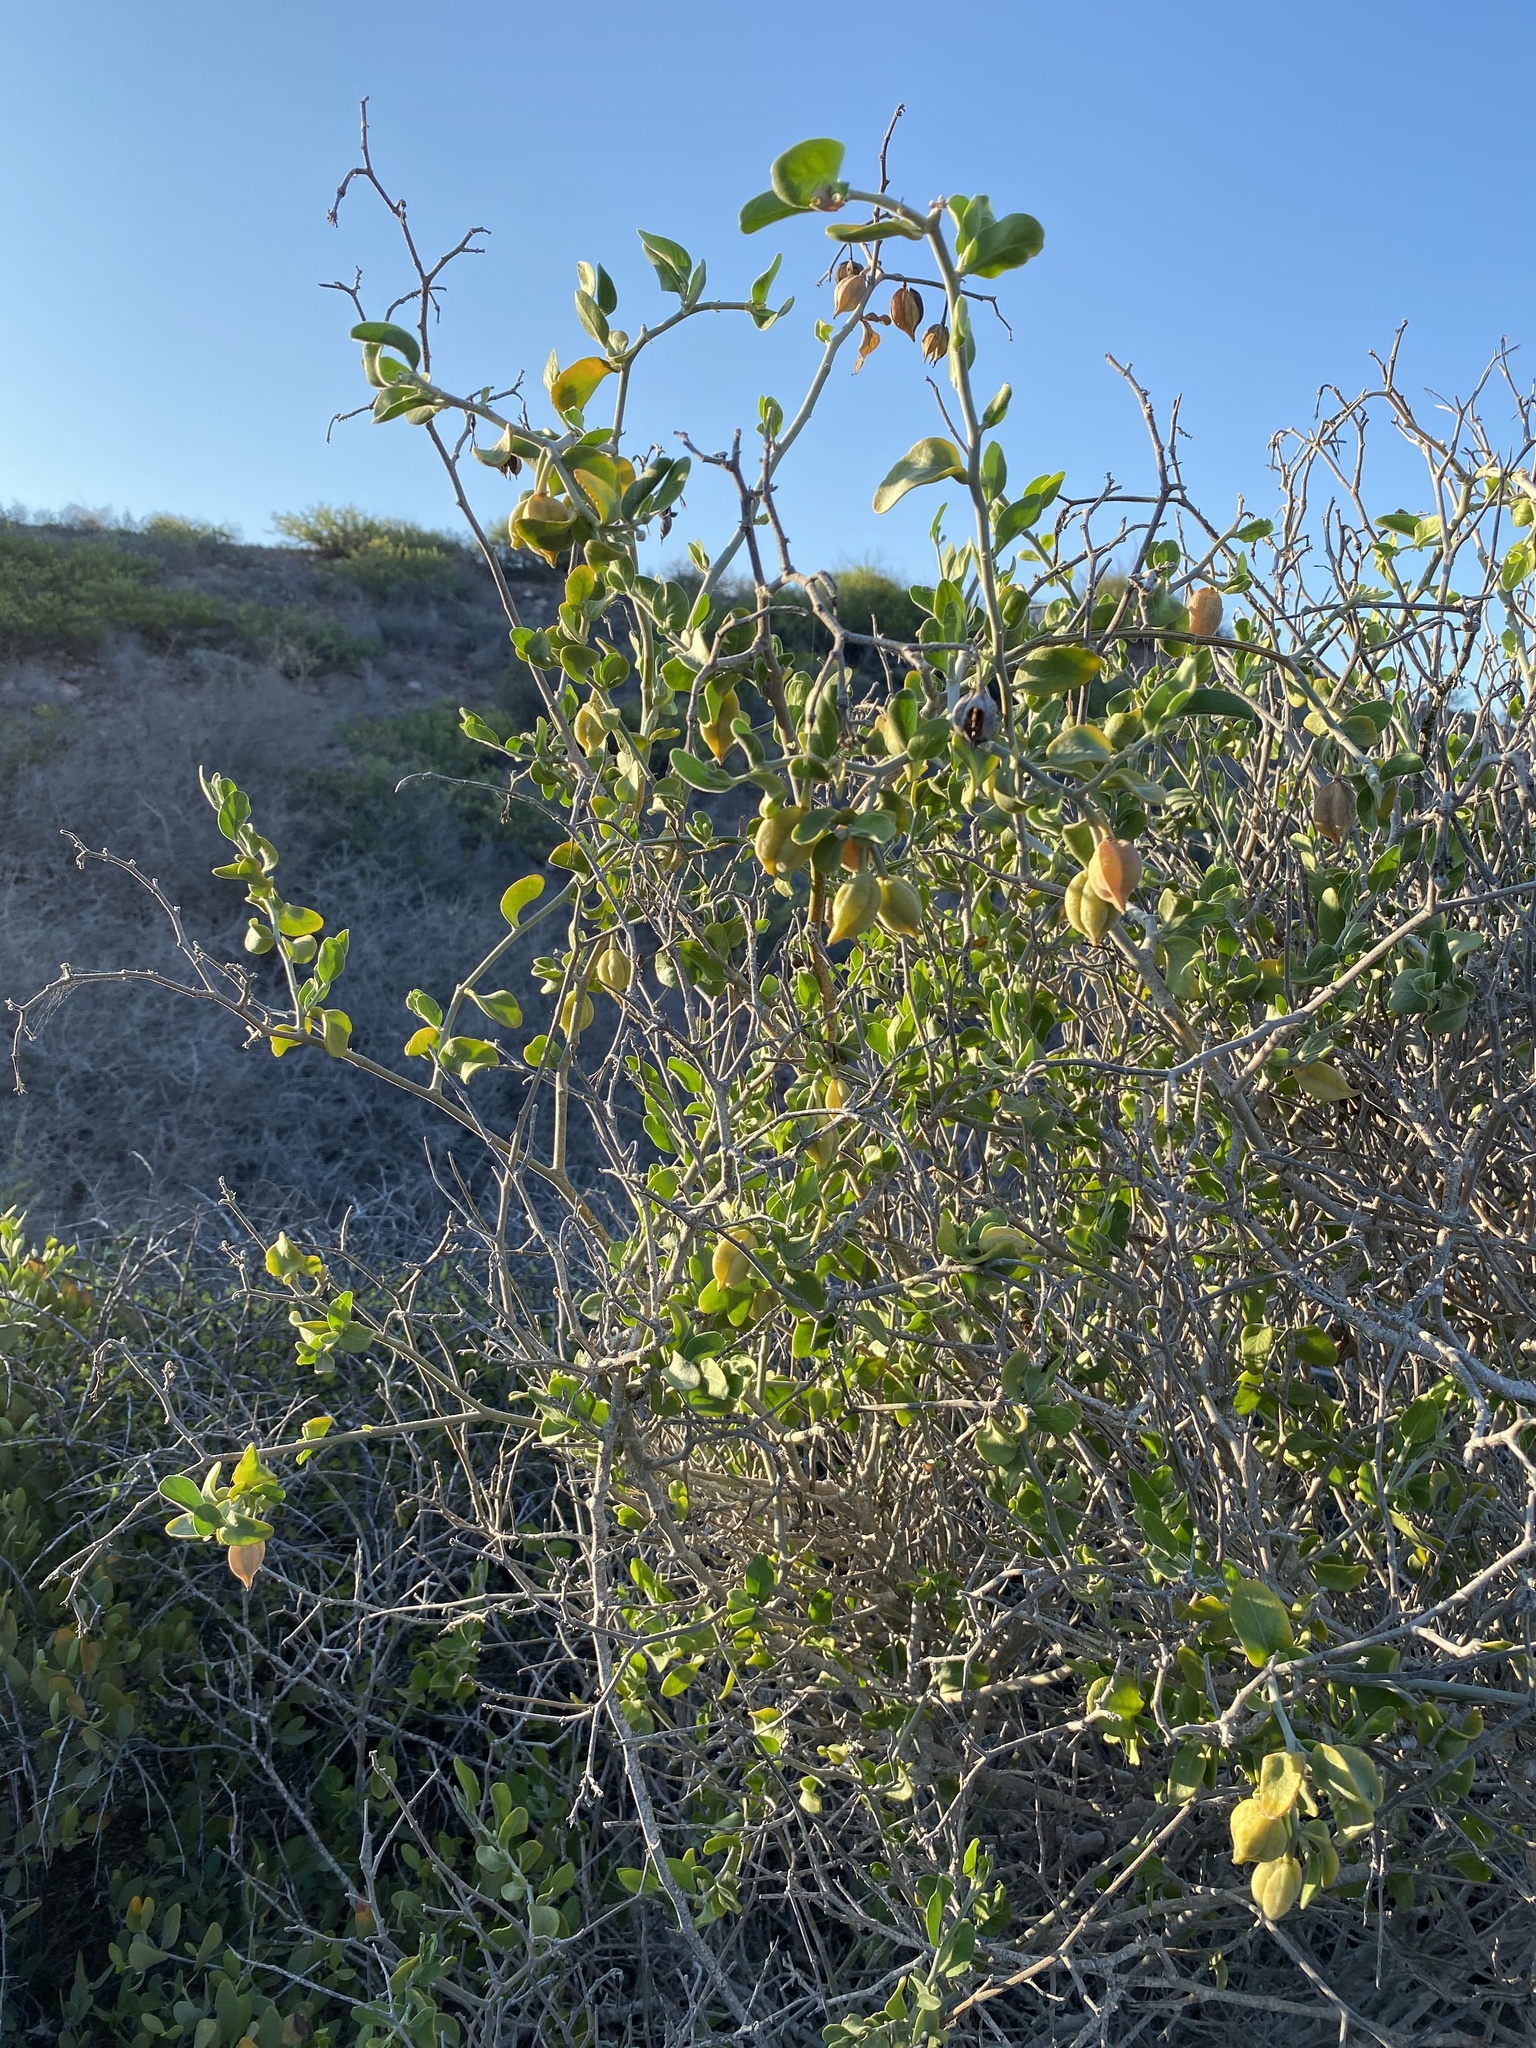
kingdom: Plantae
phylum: Tracheophyta
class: Magnoliopsida
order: Caryophyllales
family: Simmondsiaceae
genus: Simmondsia
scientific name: Simmondsia chinensis
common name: Jojoba
